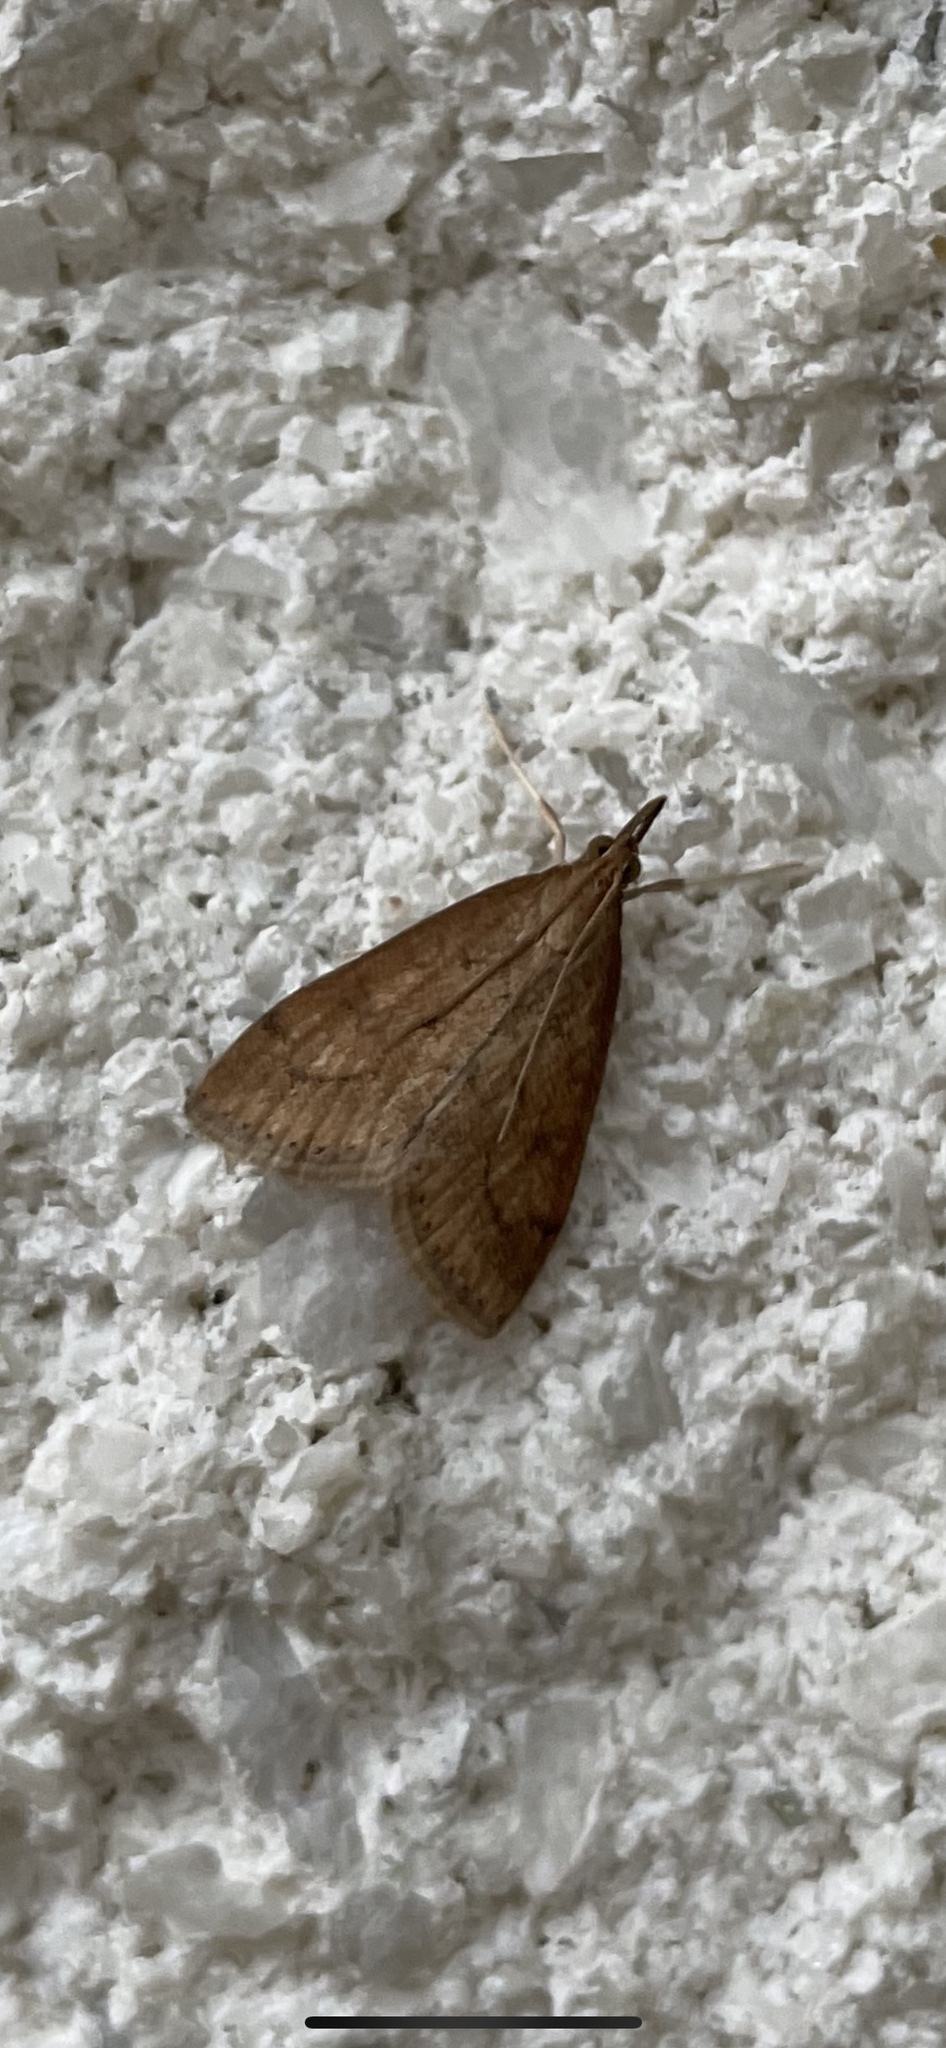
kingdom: Animalia
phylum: Arthropoda
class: Insecta
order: Lepidoptera
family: Crambidae
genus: Udea
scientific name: Udea rubigalis
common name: Celery leaftier moth
